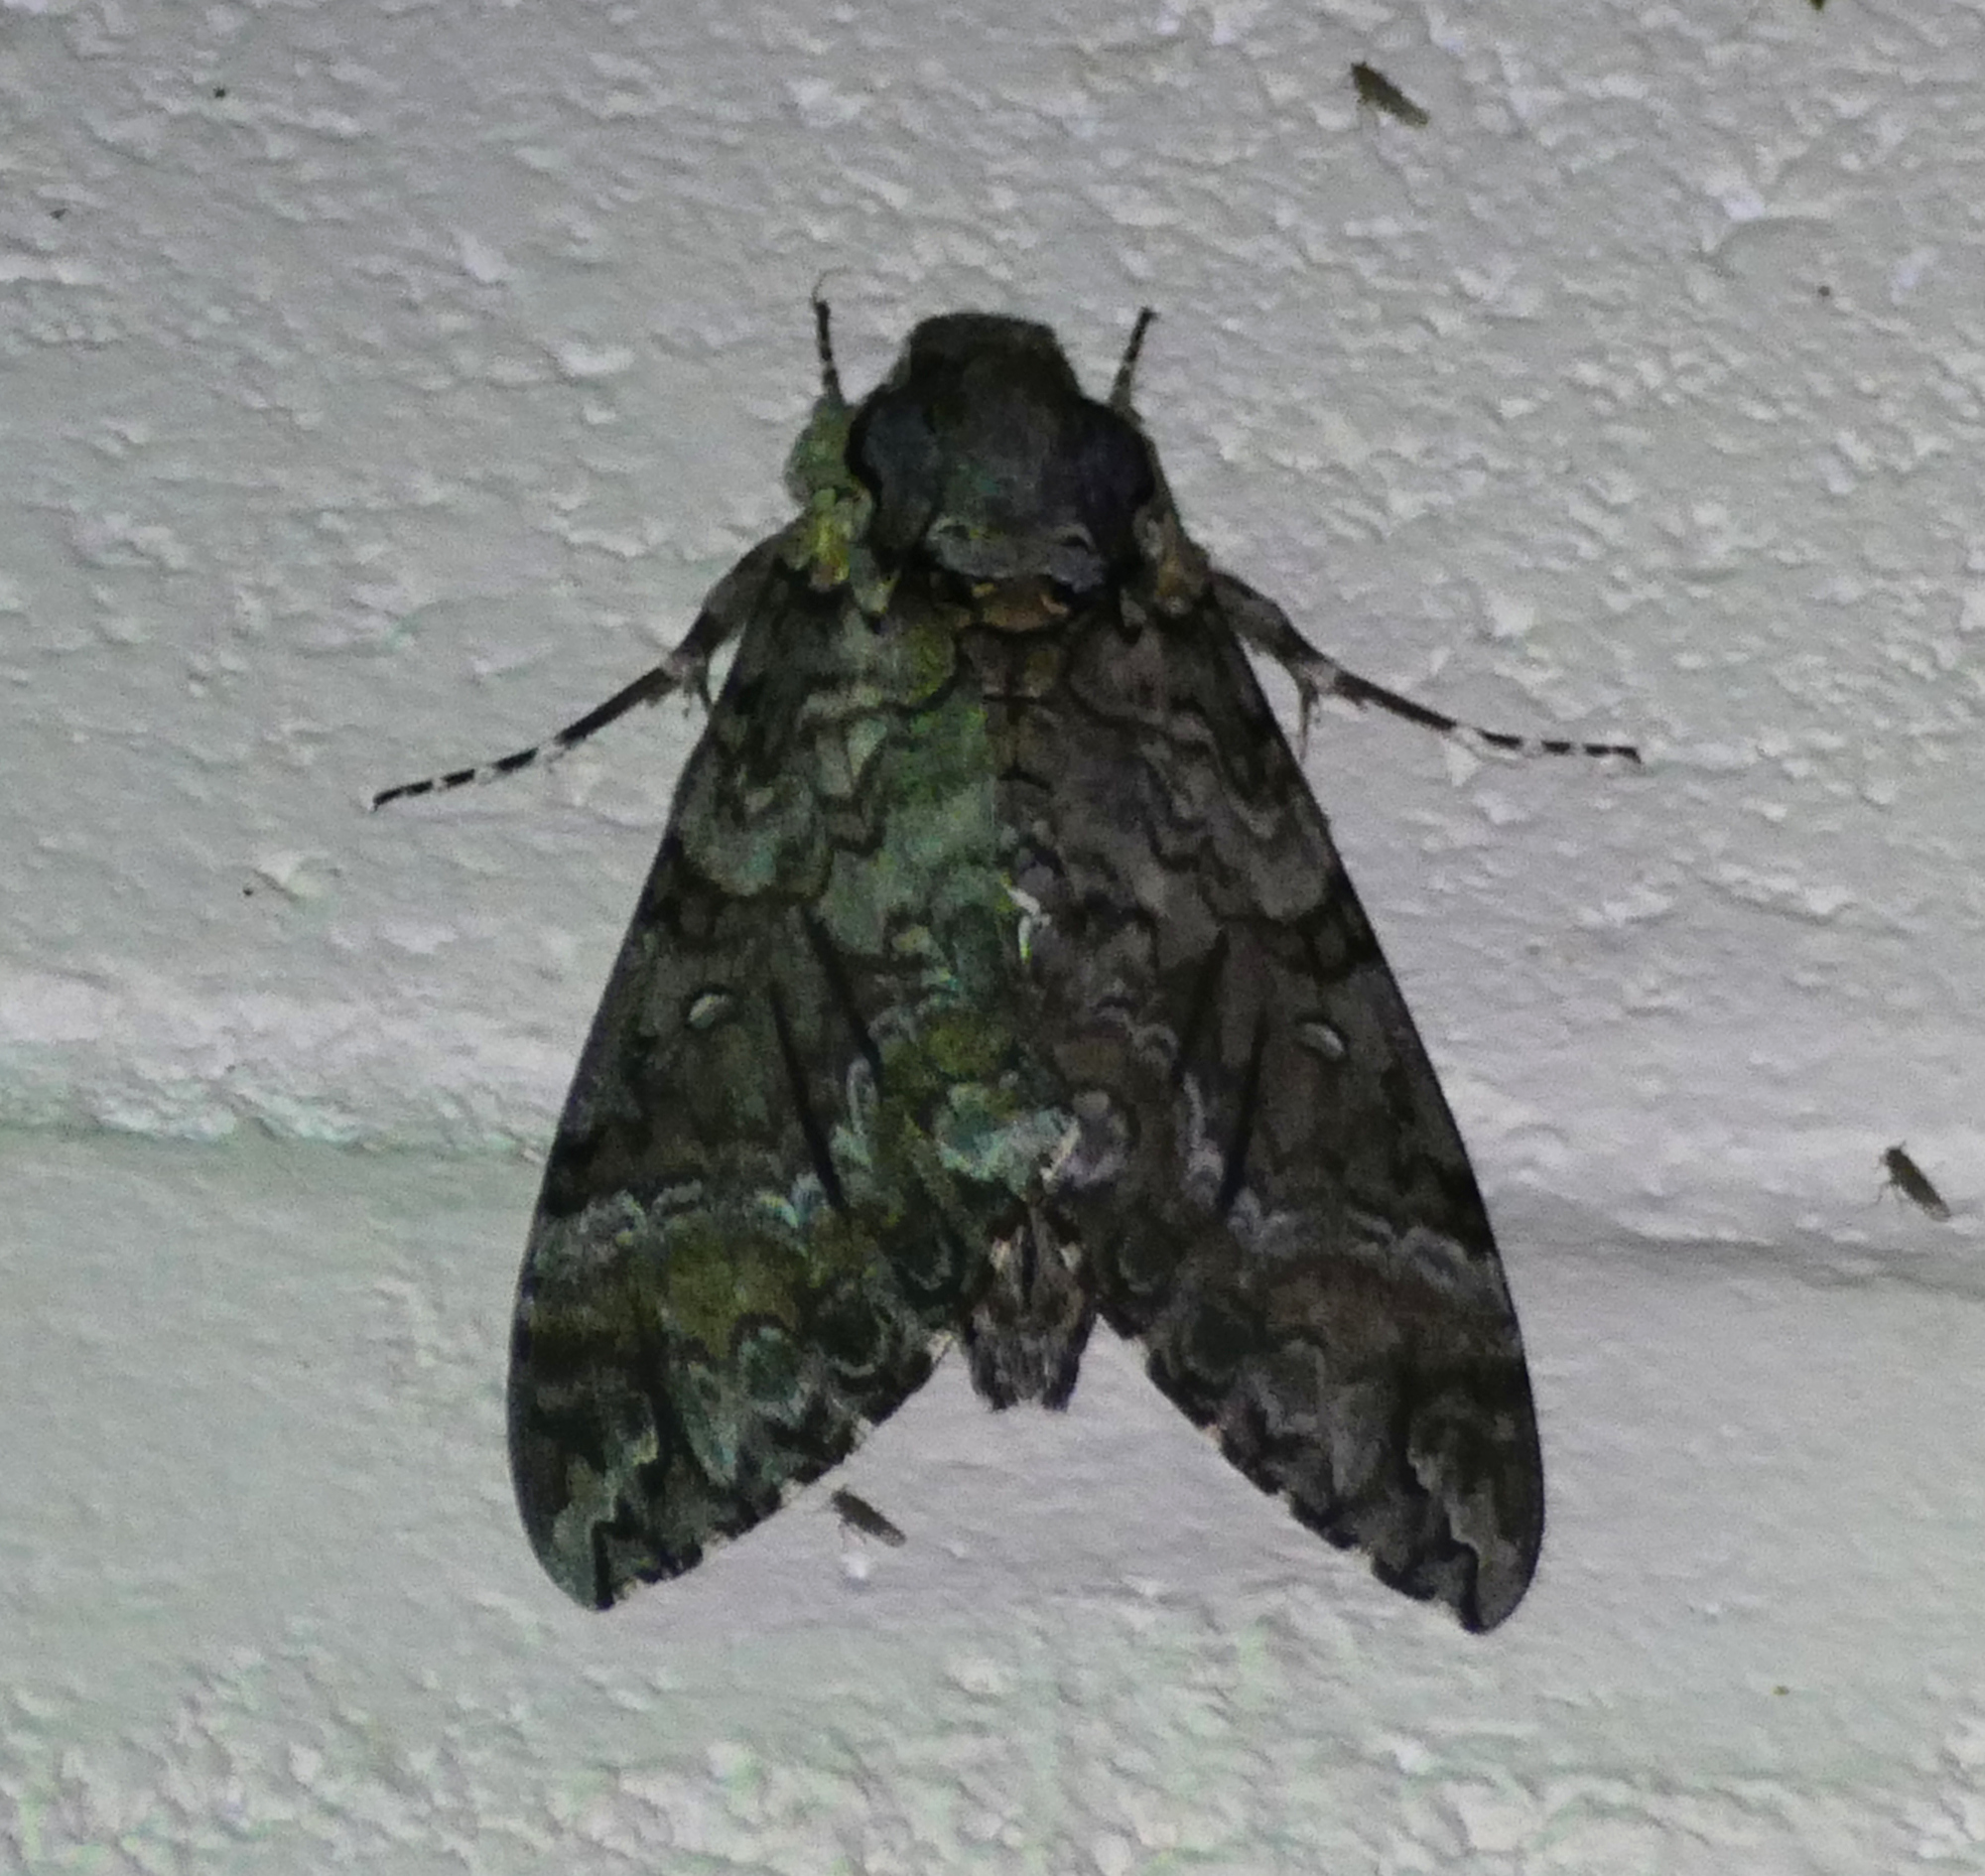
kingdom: Animalia
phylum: Arthropoda
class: Insecta
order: Lepidoptera
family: Sphingidae
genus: Agrius
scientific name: Agrius cingulata
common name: Pink-spotted hawkmoth
